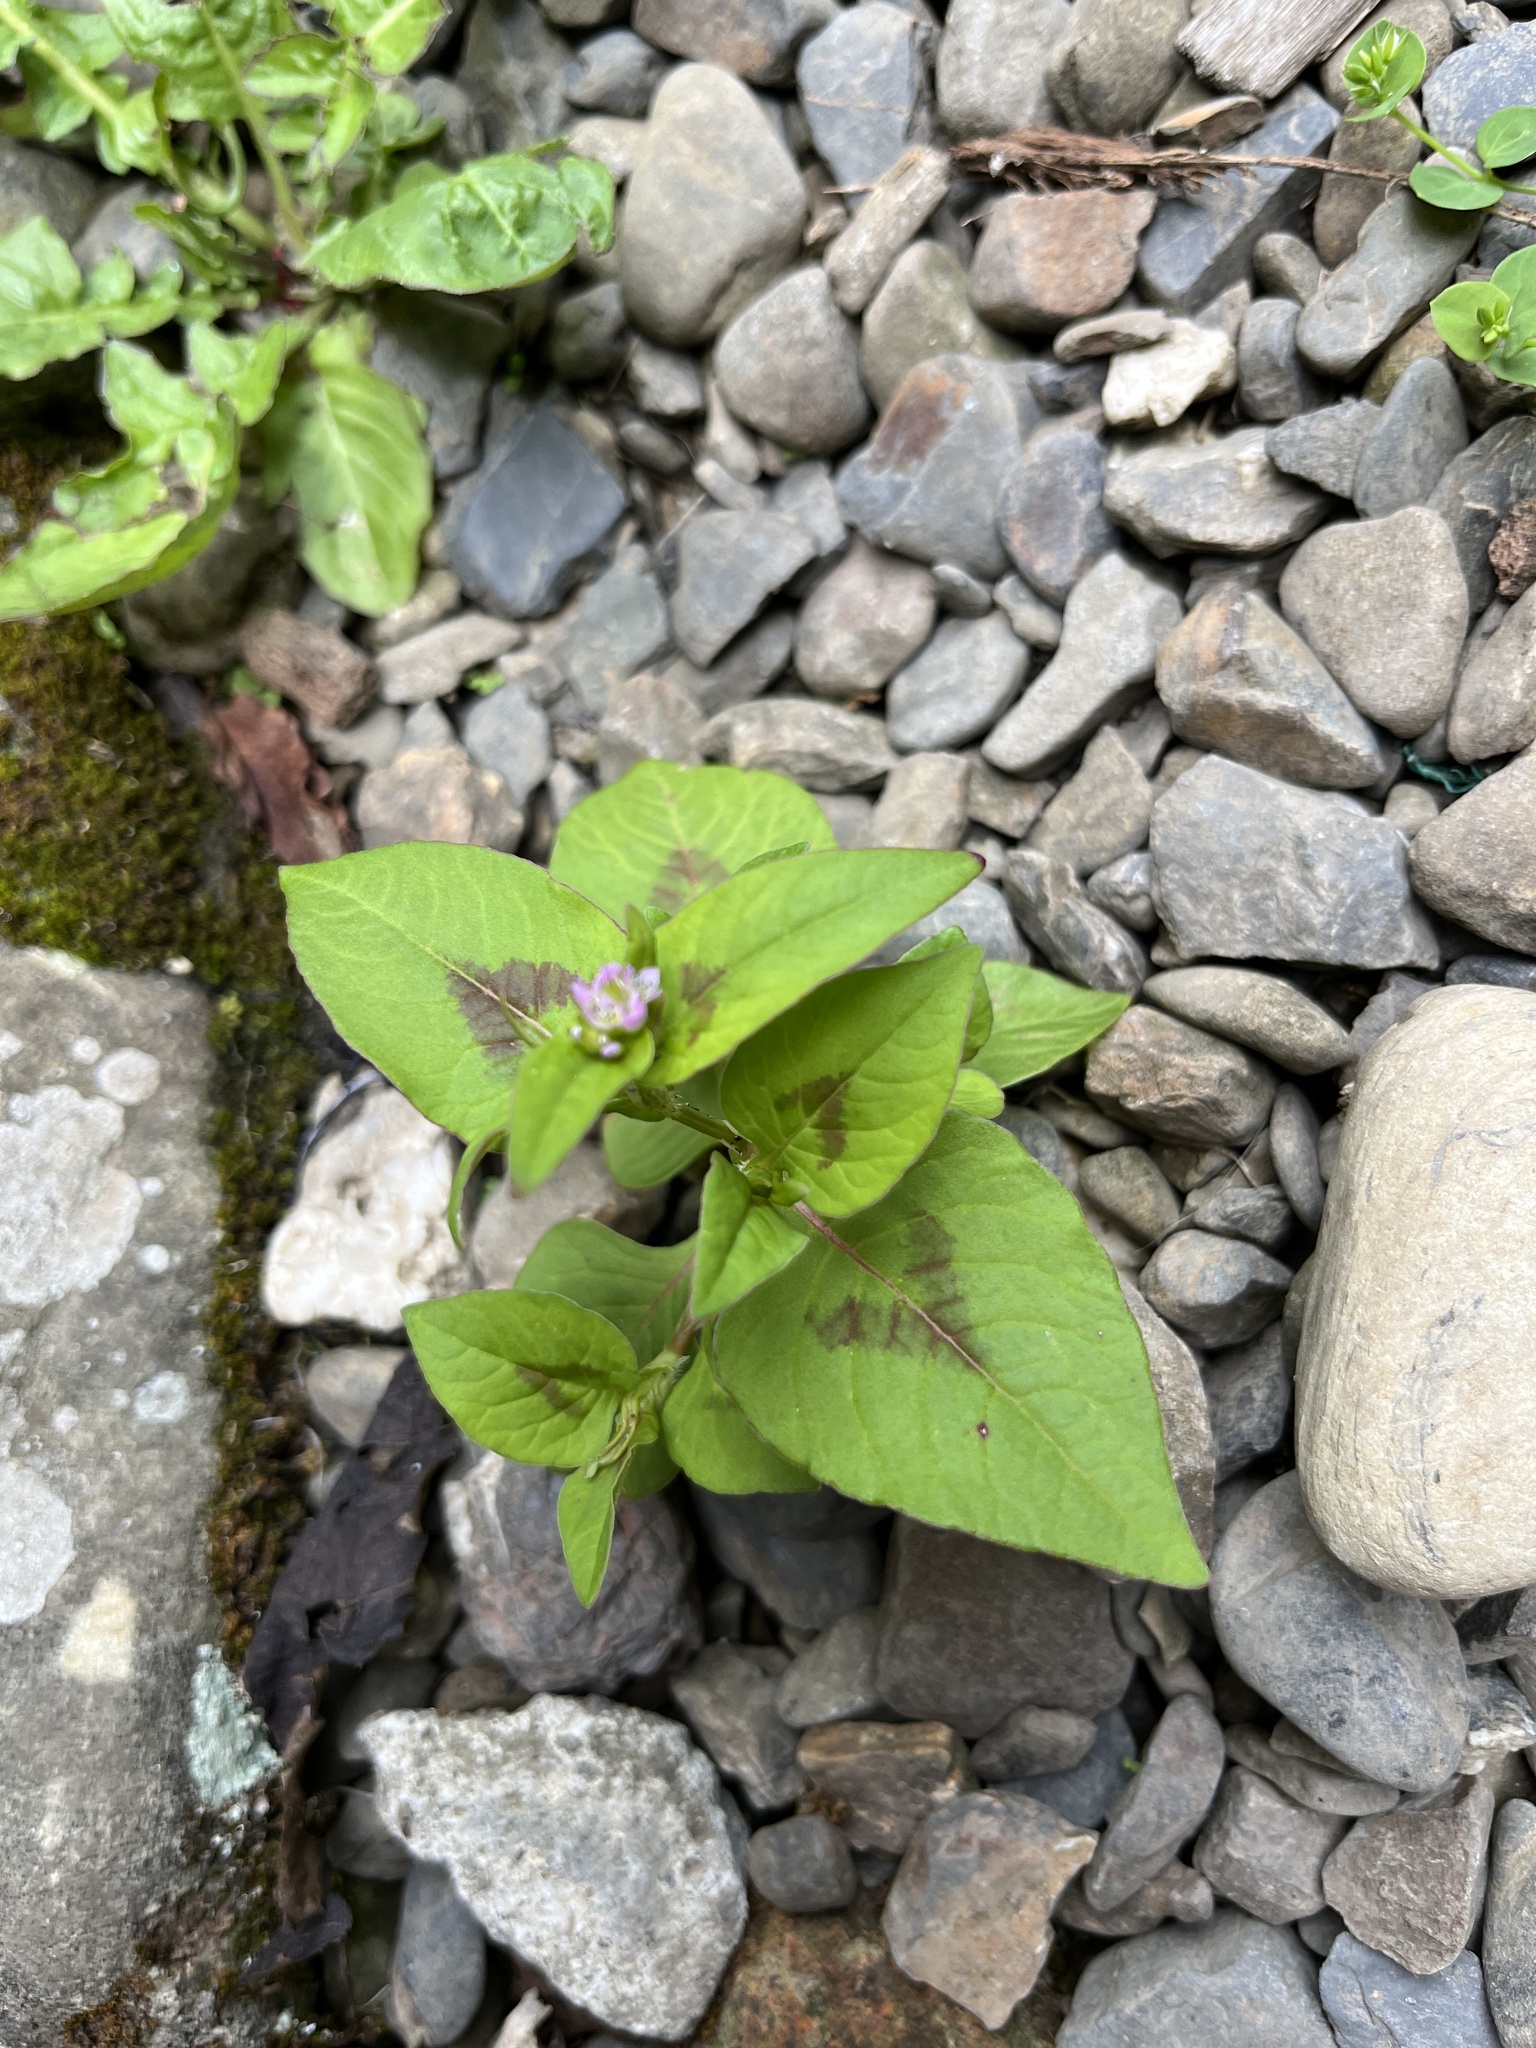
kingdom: Plantae
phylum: Tracheophyta
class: Magnoliopsida
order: Caryophyllales
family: Polygonaceae
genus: Persicaria
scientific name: Persicaria nepalensis
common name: Nepal persicaria
